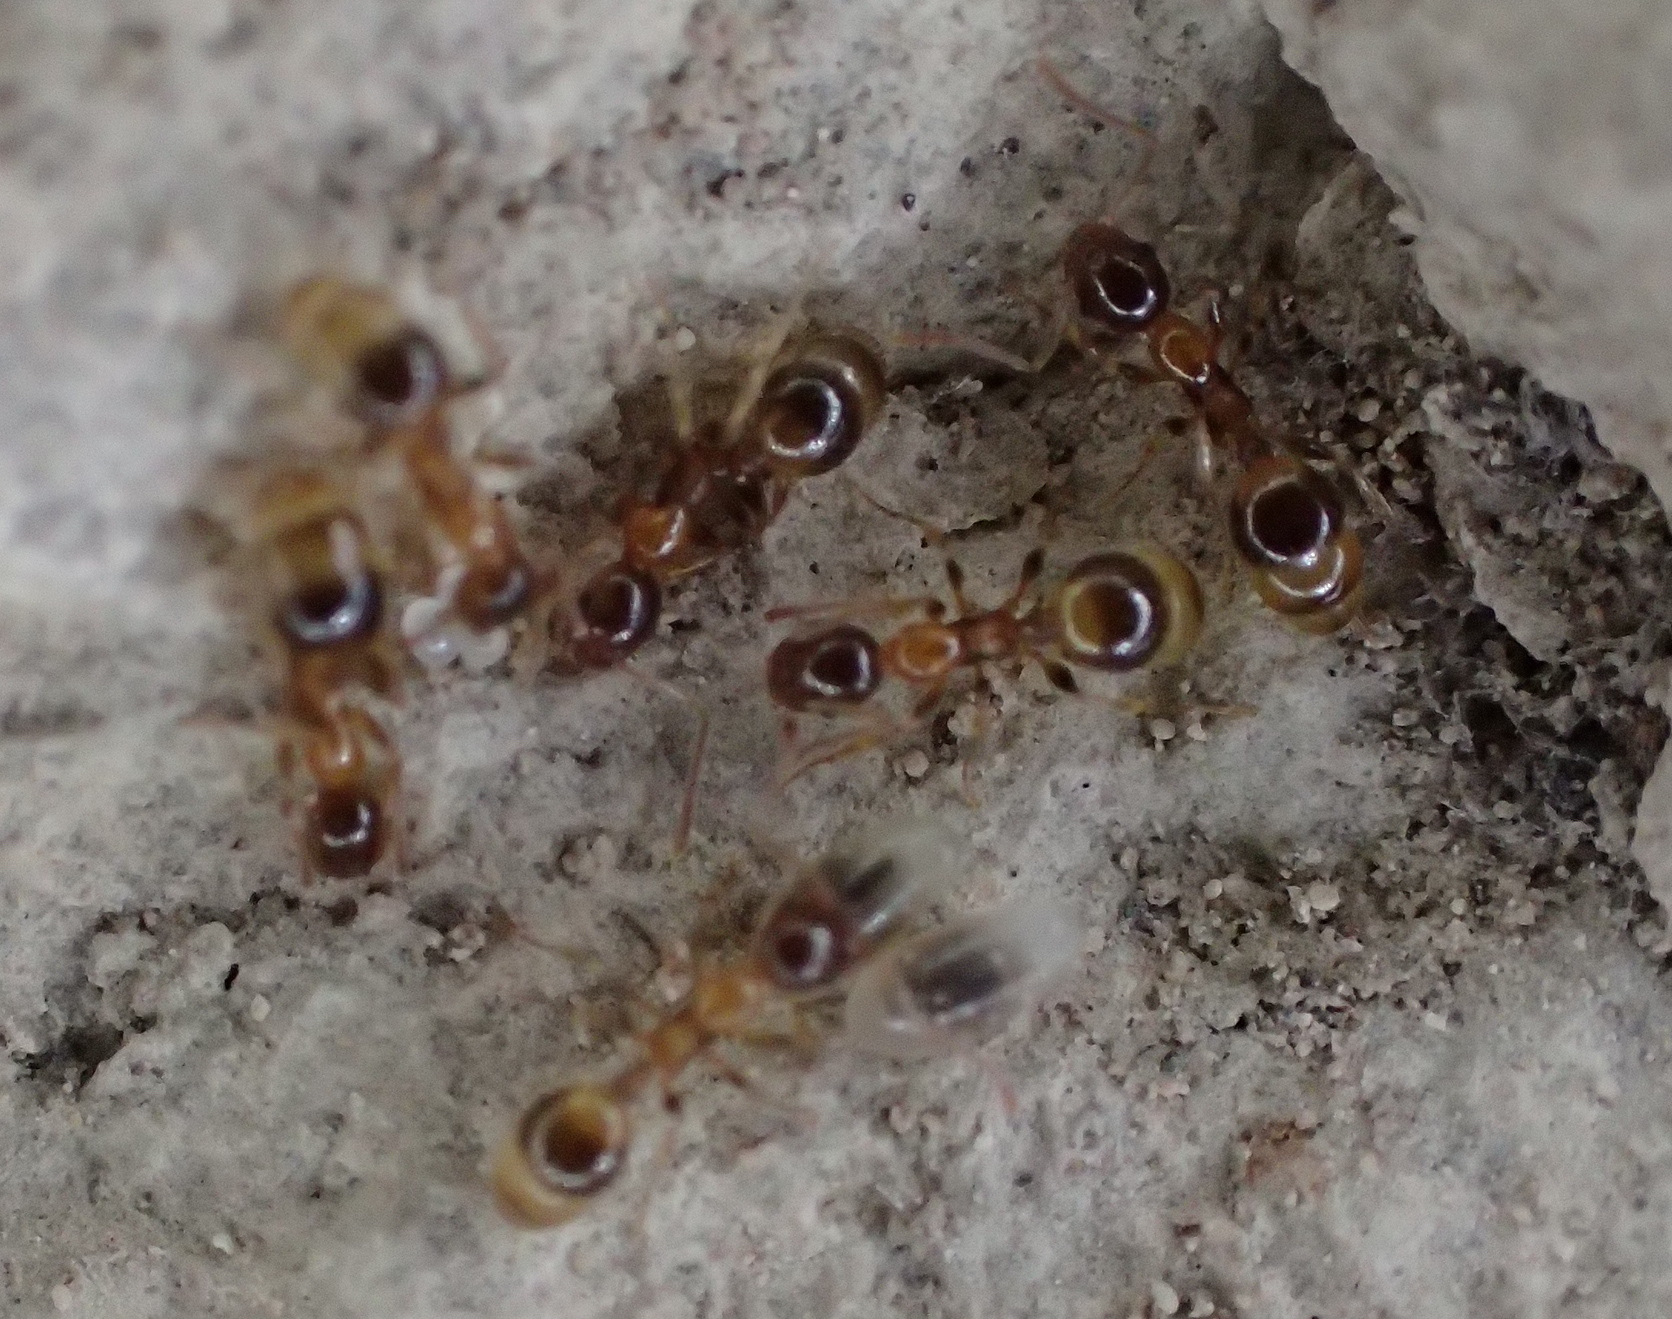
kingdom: Animalia
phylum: Arthropoda
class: Insecta
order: Hymenoptera
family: Formicidae
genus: Leptothorax
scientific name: Leptothorax recedens
